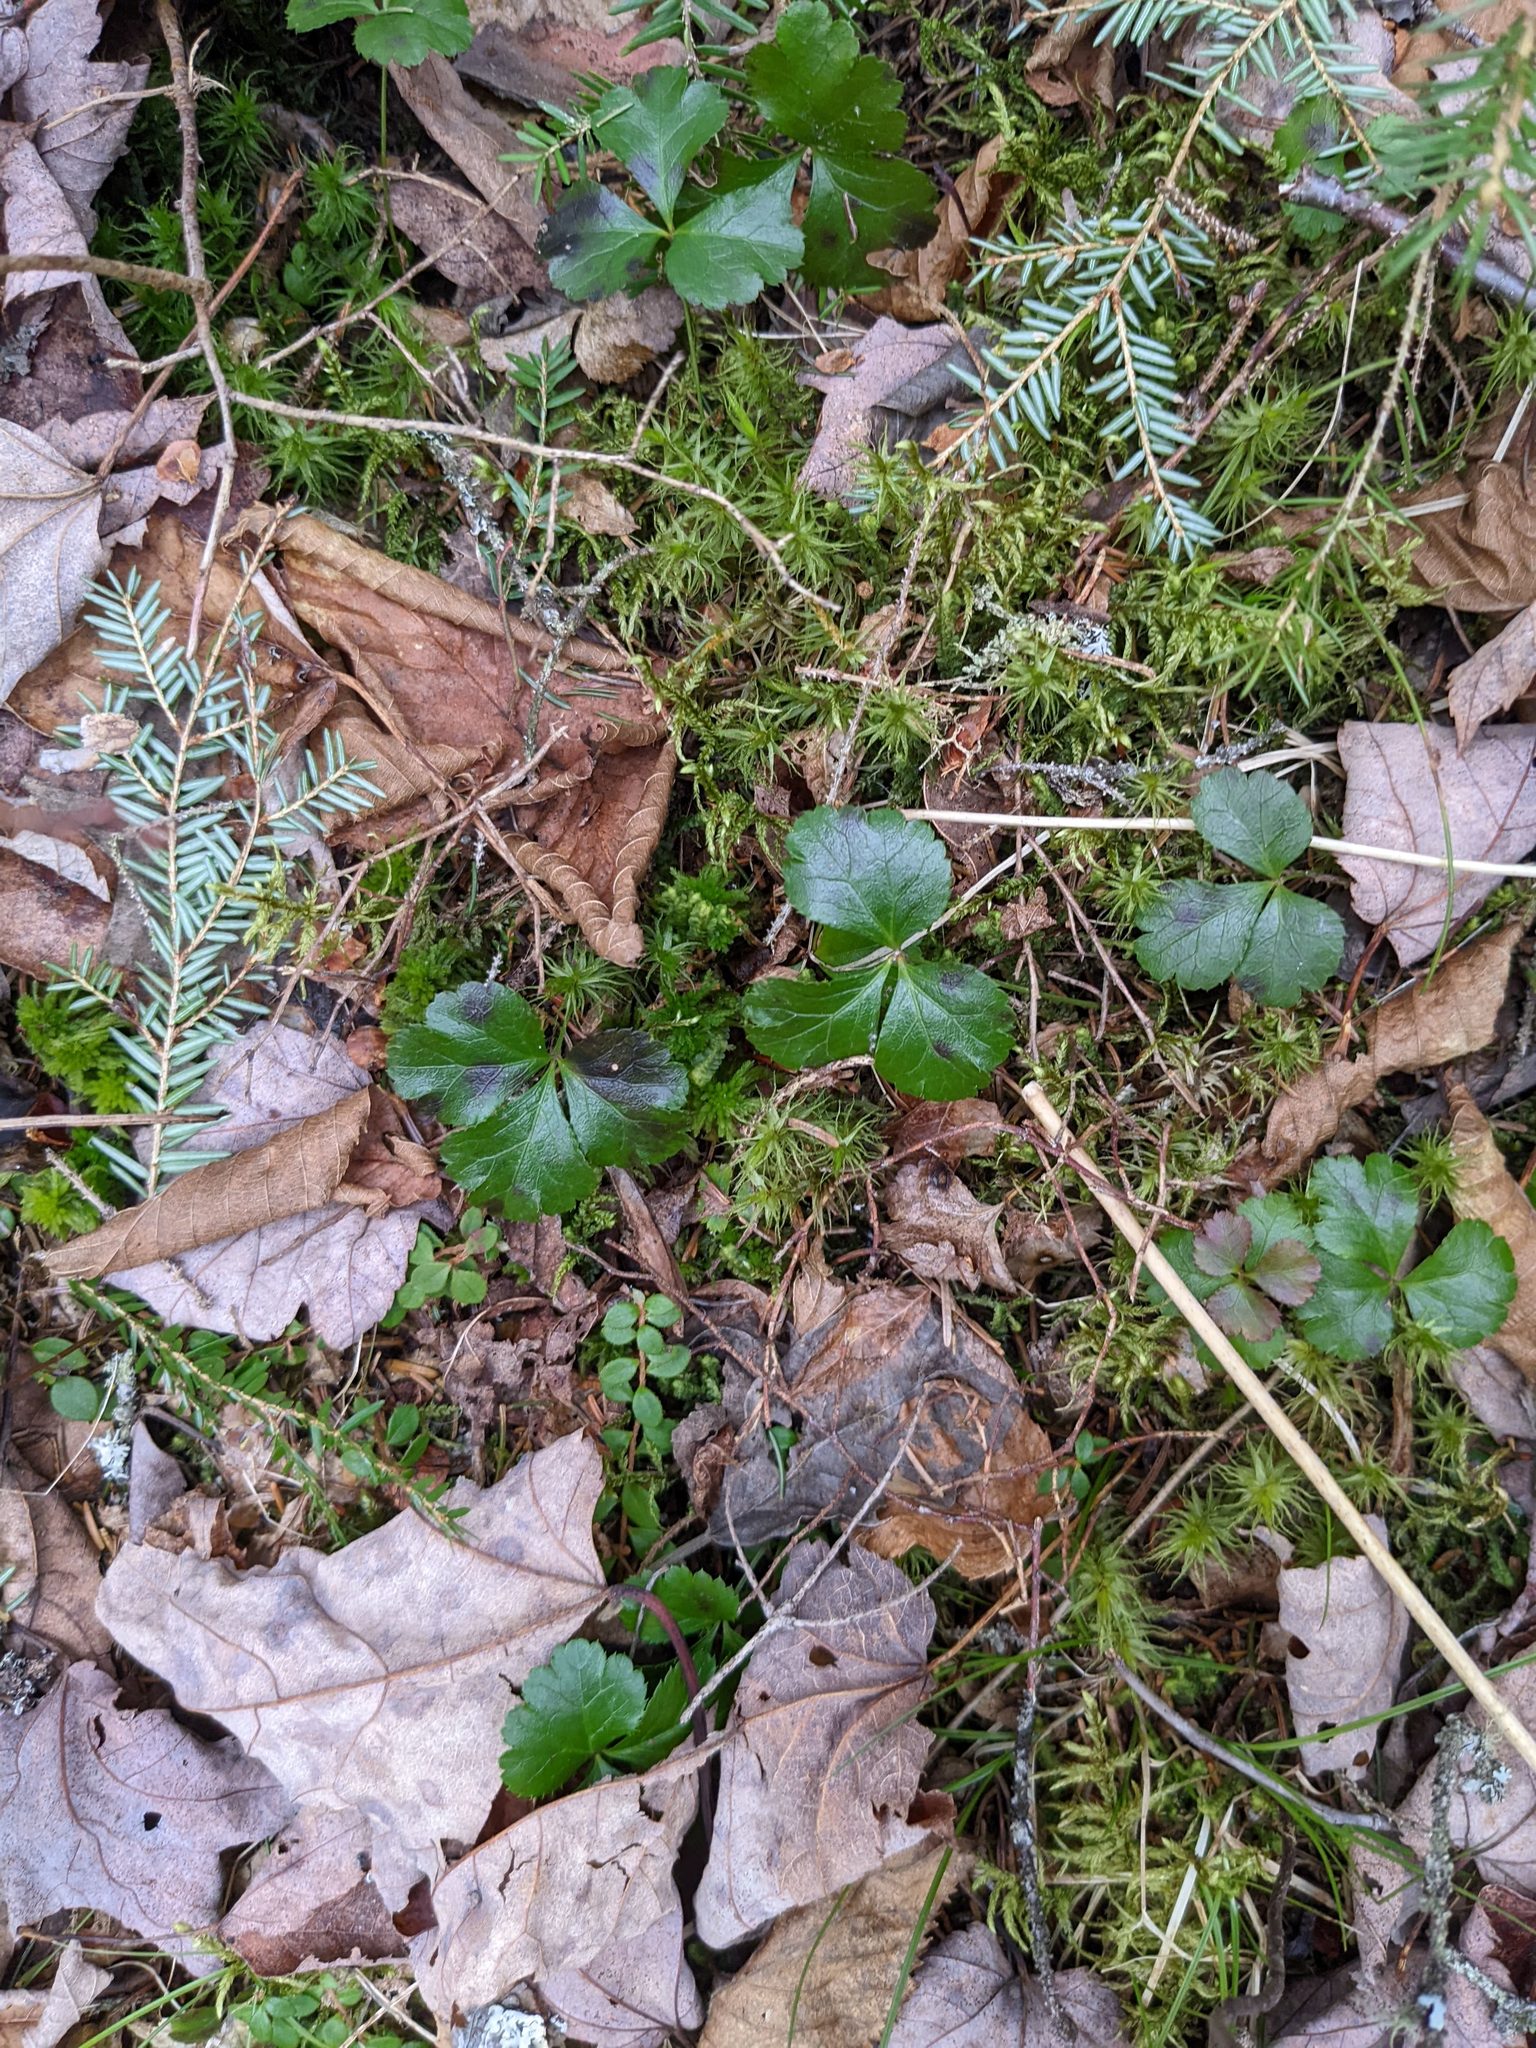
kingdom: Plantae
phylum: Tracheophyta
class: Magnoliopsida
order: Ranunculales
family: Ranunculaceae
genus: Coptis
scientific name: Coptis trifolia
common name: Canker-root
